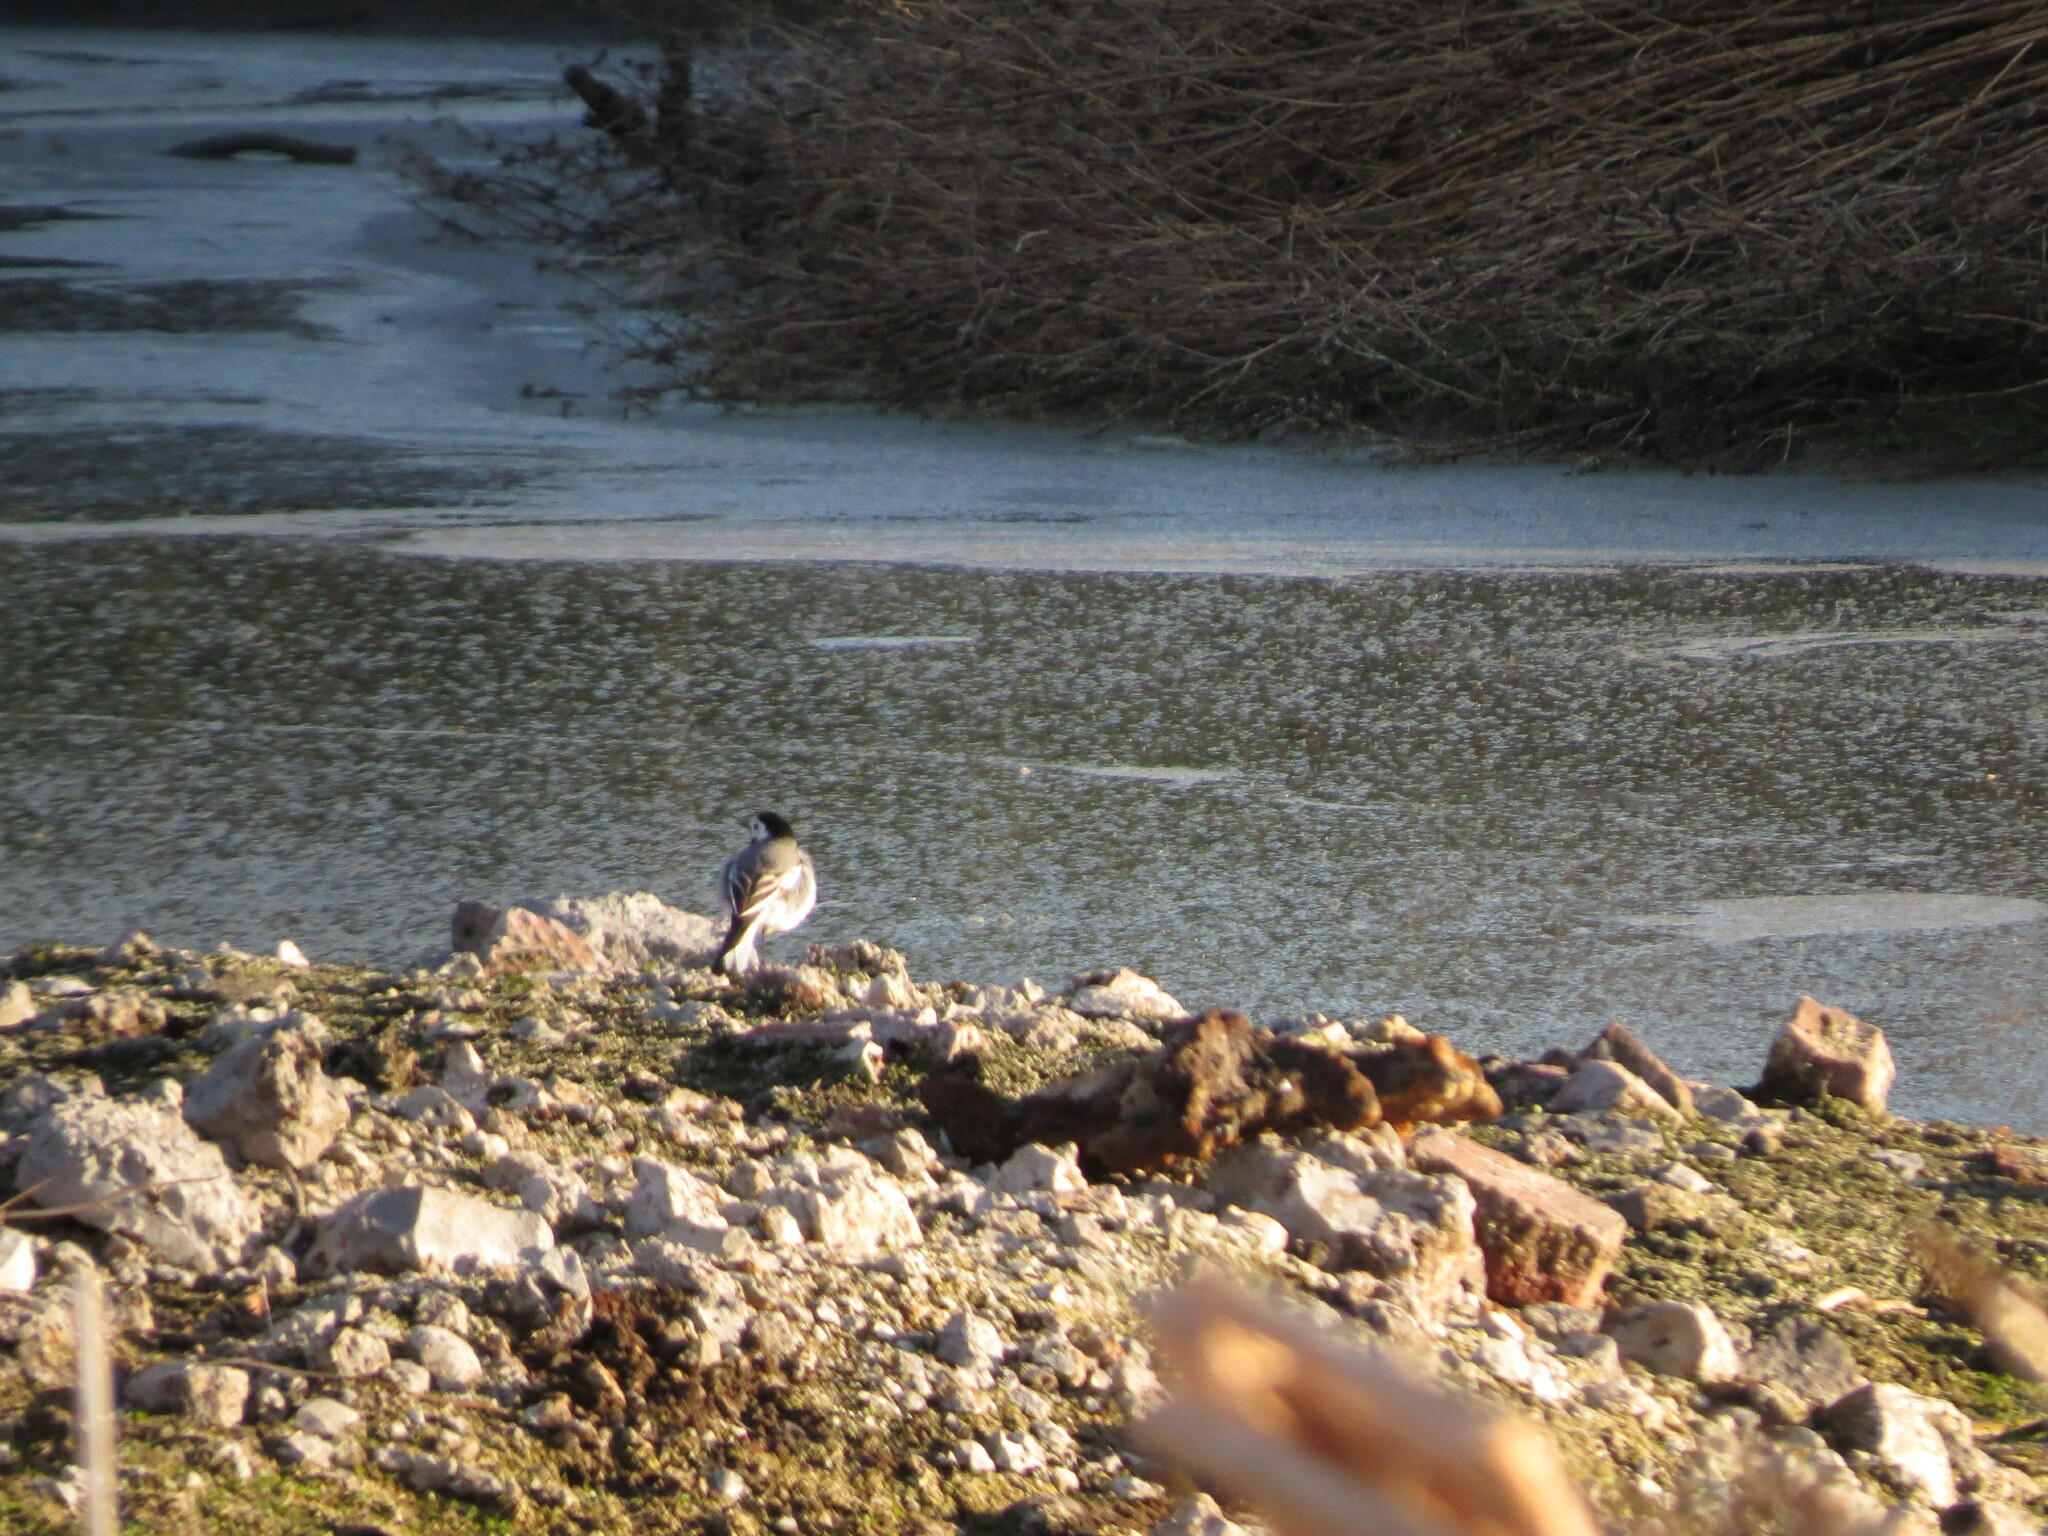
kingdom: Animalia
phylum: Chordata
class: Aves
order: Passeriformes
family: Motacillidae
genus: Motacilla
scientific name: Motacilla alba
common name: White wagtail
